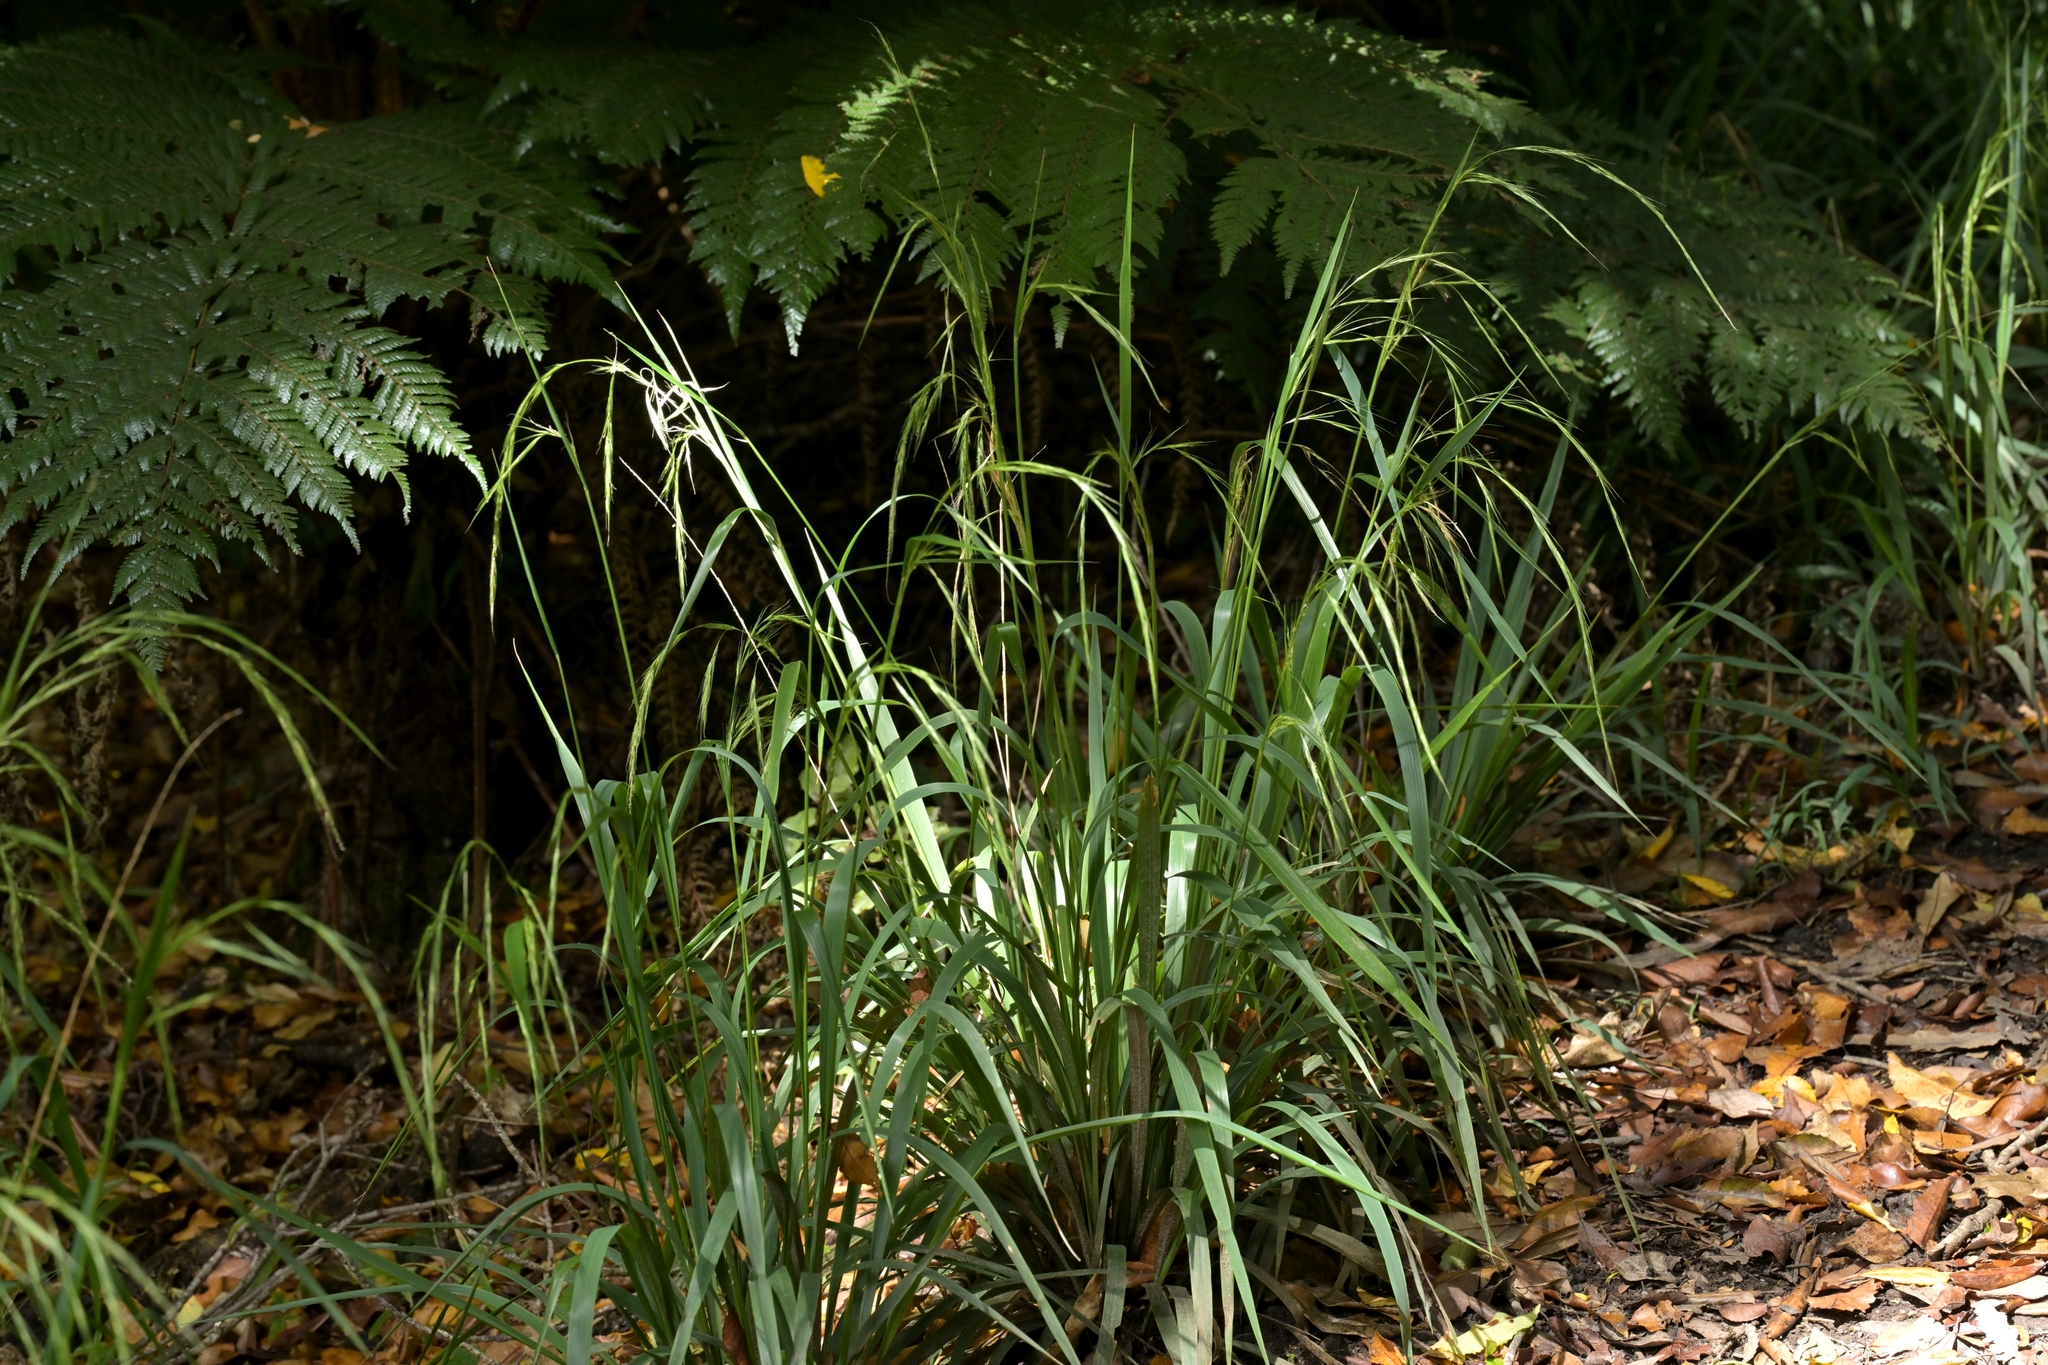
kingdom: Plantae
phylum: Tracheophyta
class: Liliopsida
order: Poales
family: Poaceae
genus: Ehrharta
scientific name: Ehrharta diplax
